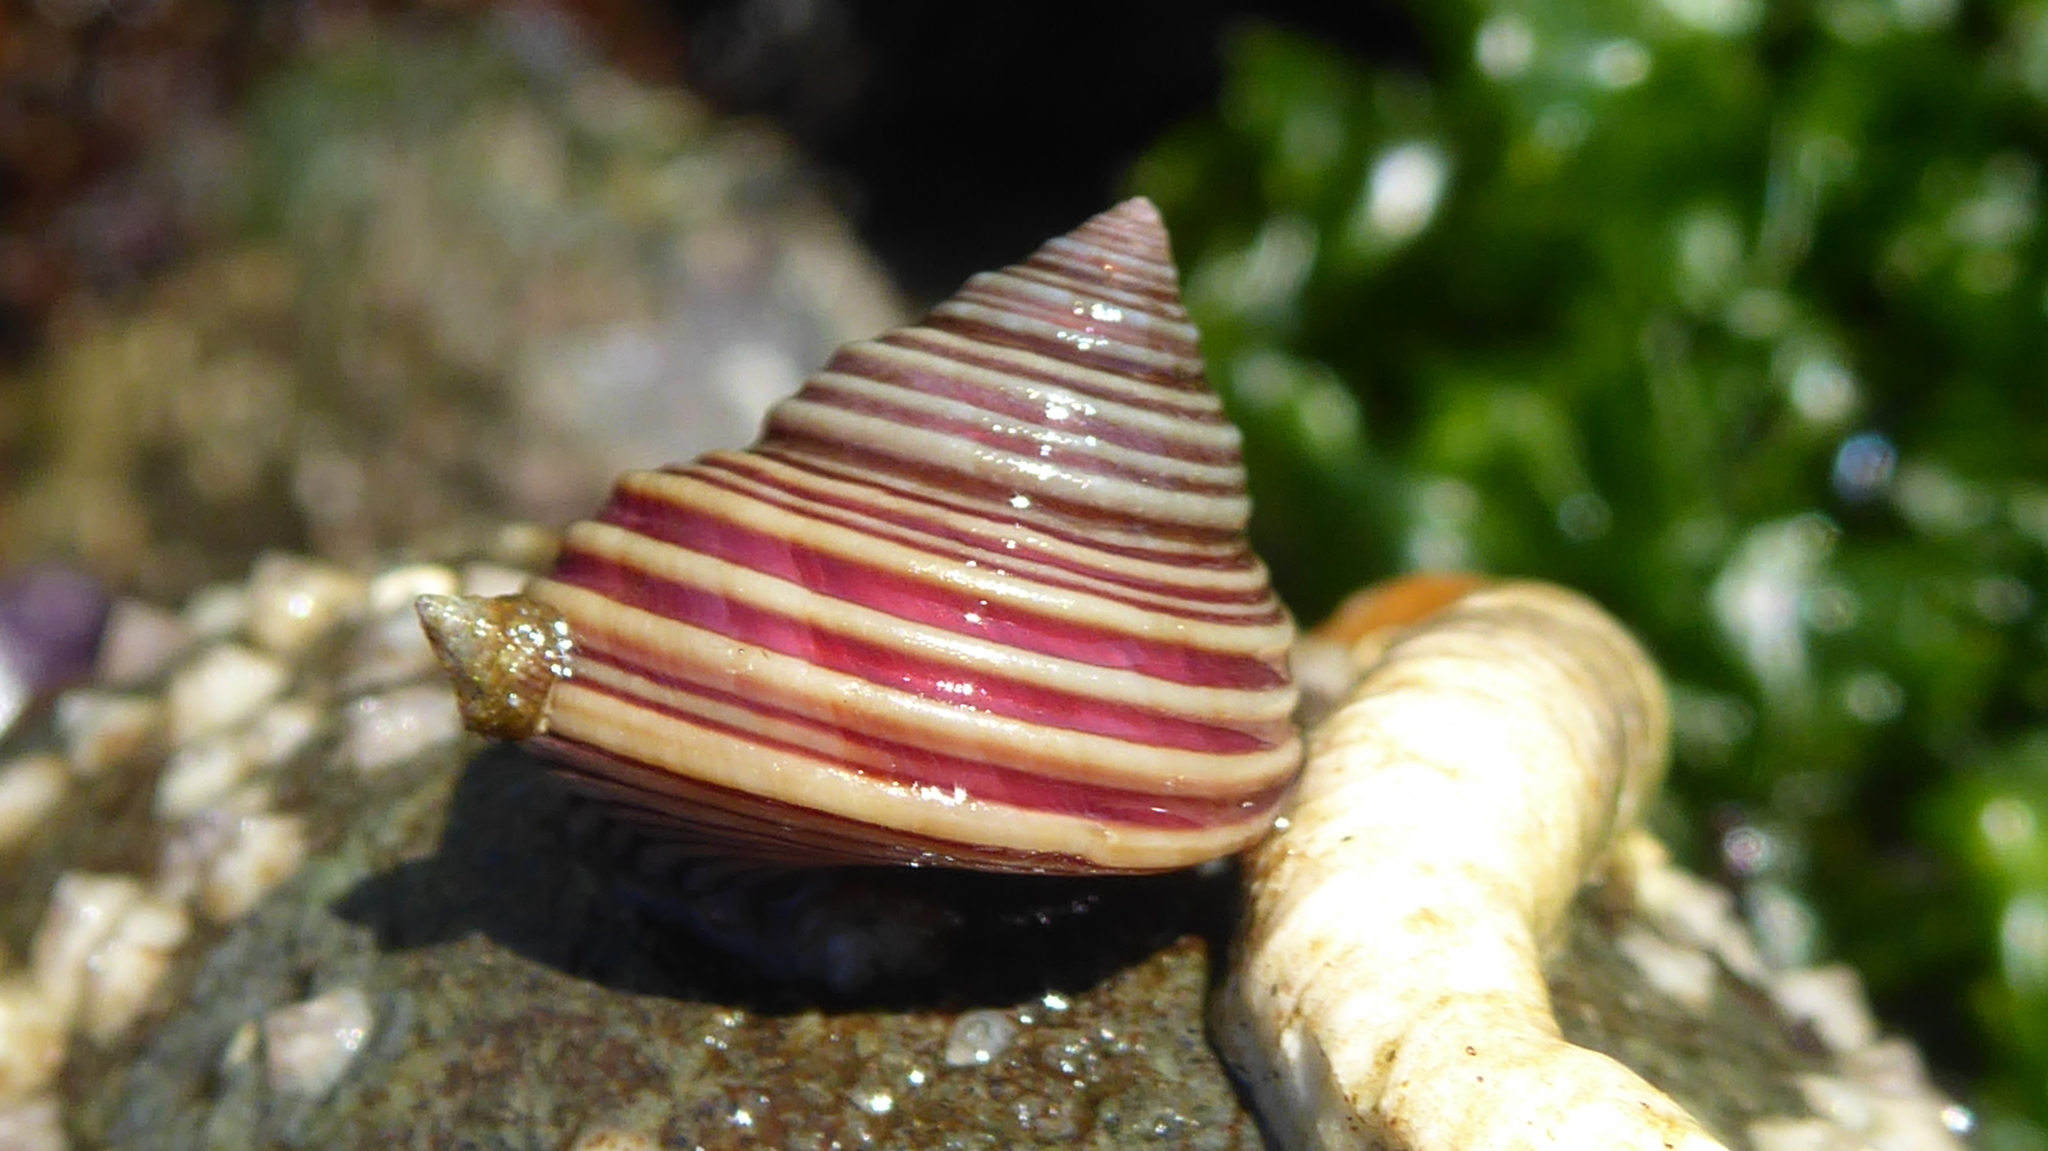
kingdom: Animalia
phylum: Mollusca
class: Gastropoda
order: Trochida
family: Calliostomatidae
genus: Calliostoma
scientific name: Calliostoma ligatum
